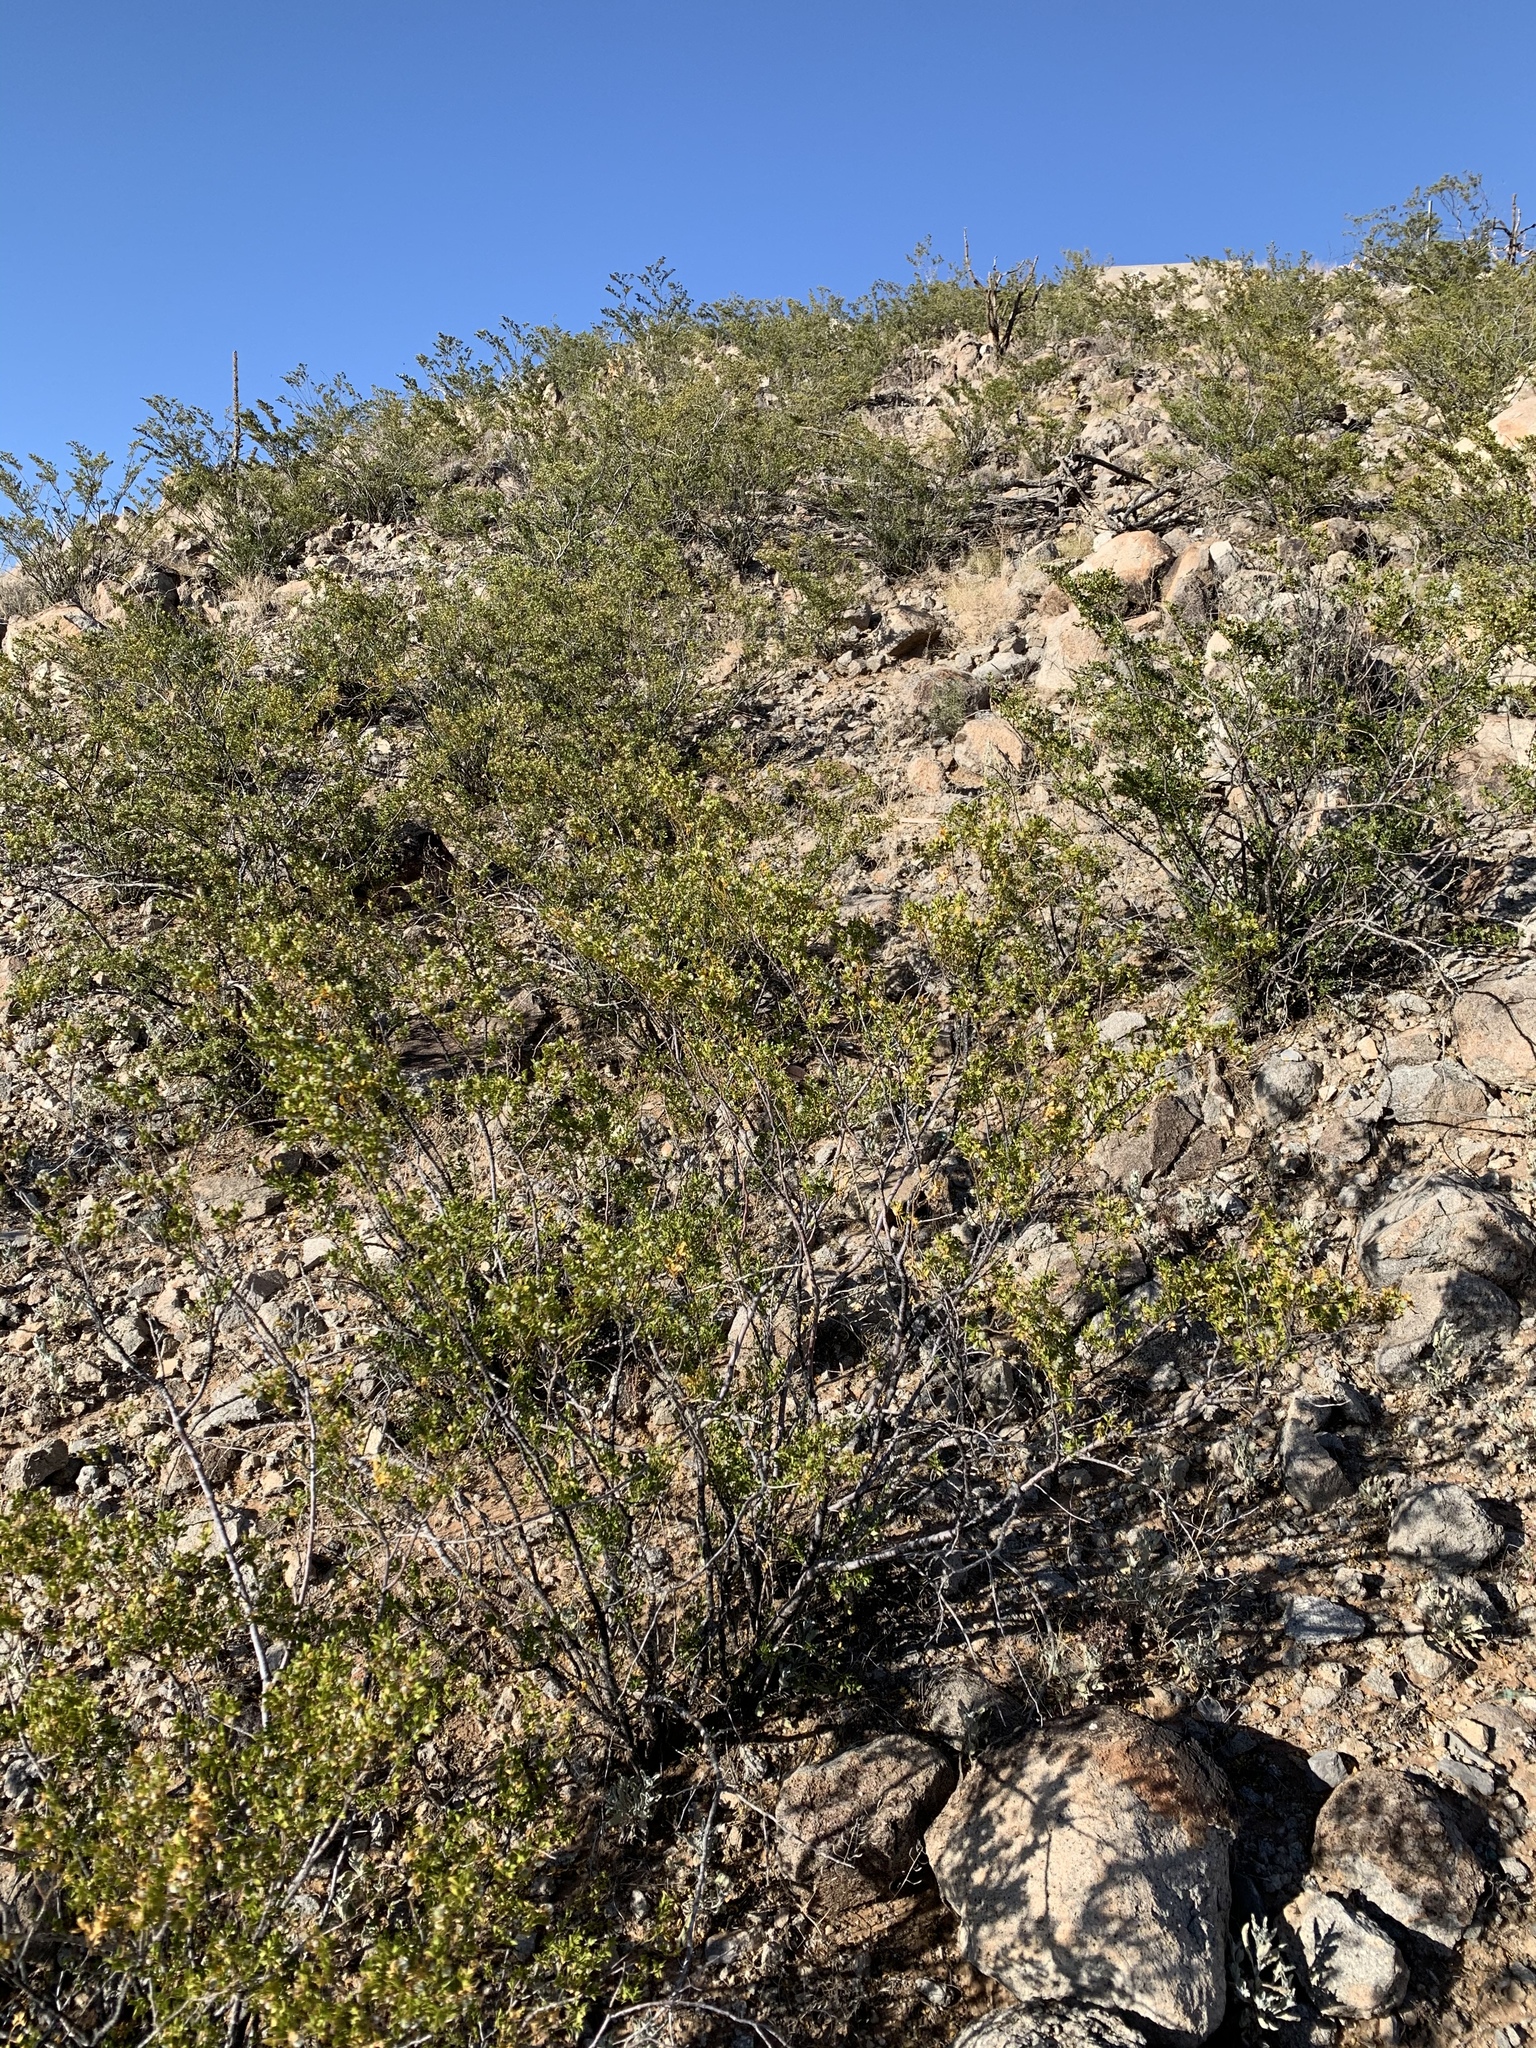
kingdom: Plantae
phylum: Tracheophyta
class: Magnoliopsida
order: Zygophyllales
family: Zygophyllaceae
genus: Larrea
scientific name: Larrea tridentata
